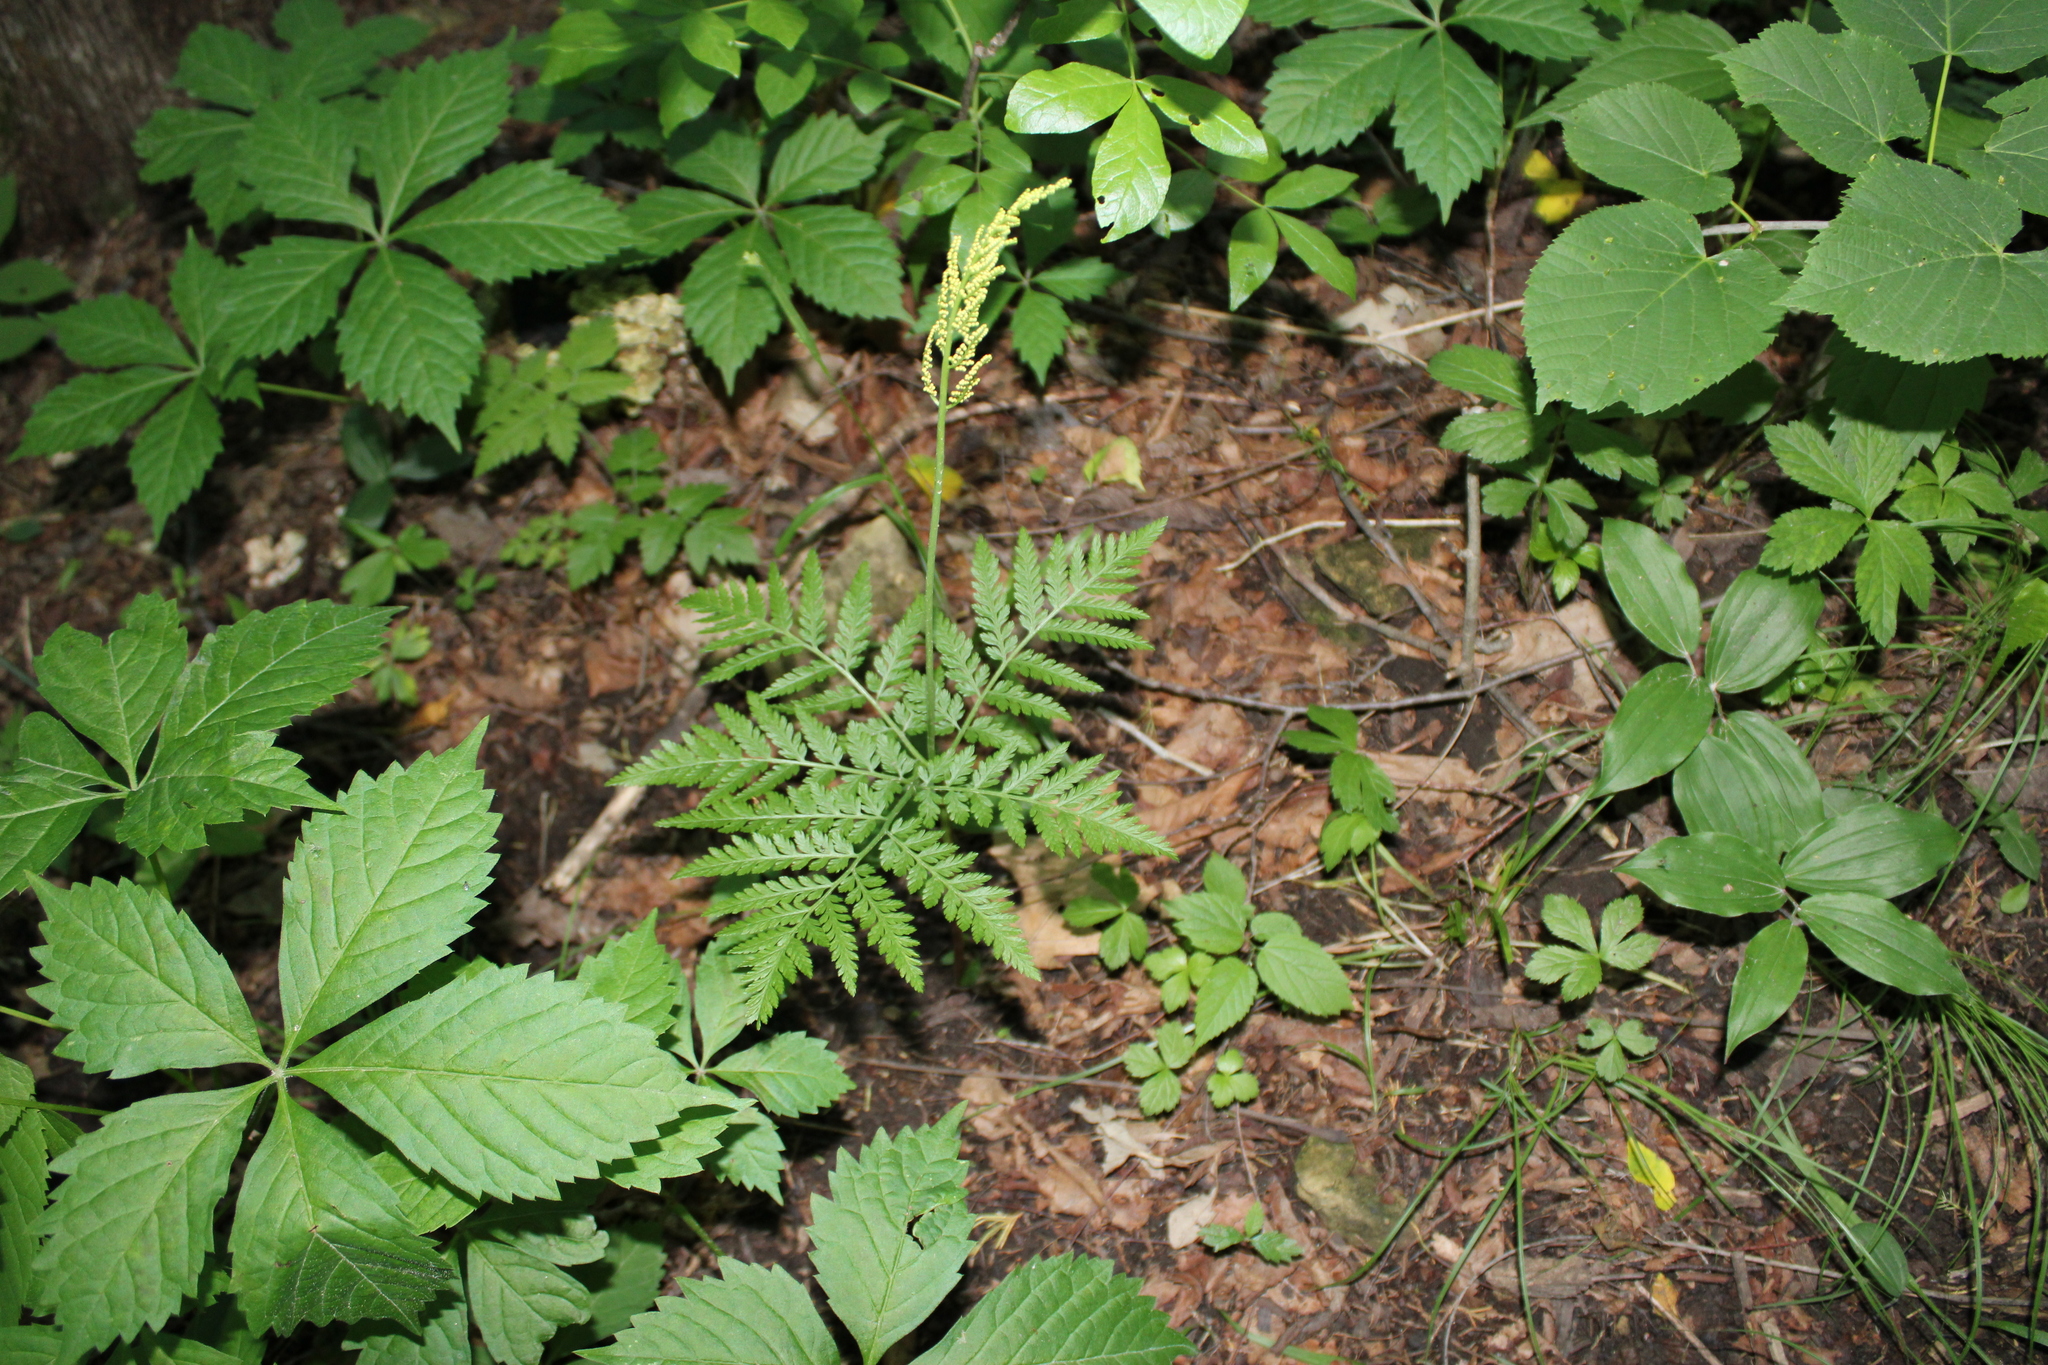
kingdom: Plantae
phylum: Tracheophyta
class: Polypodiopsida
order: Ophioglossales
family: Ophioglossaceae
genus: Botrypus
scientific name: Botrypus virginianus
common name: Common grapefern
